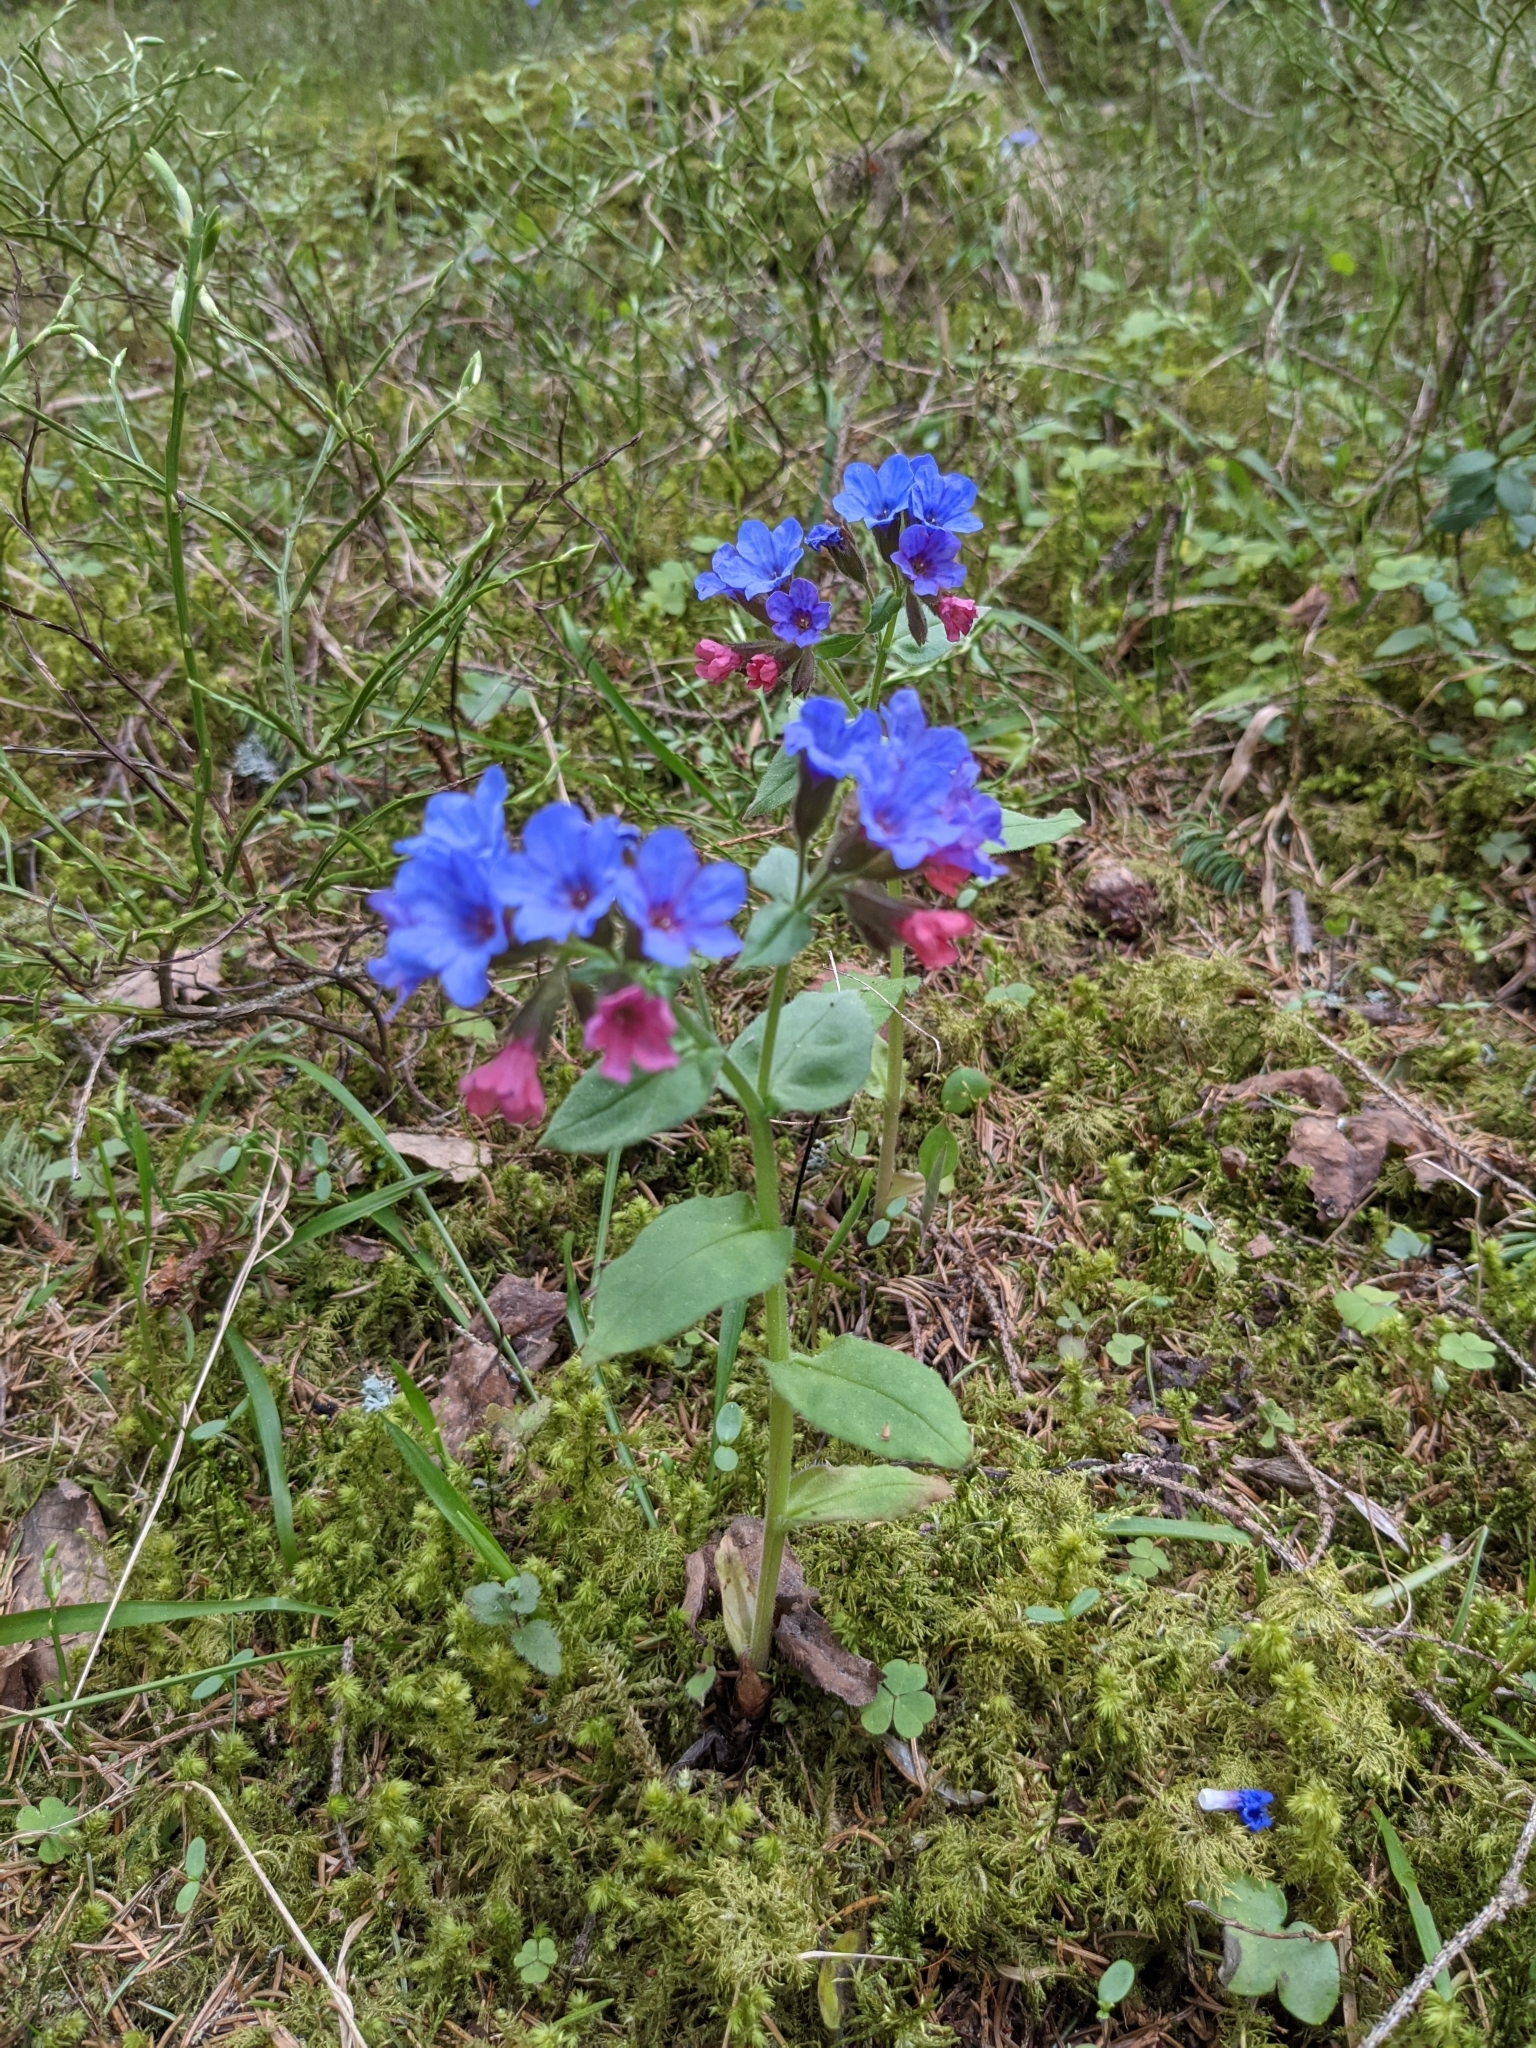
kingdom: Plantae
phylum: Tracheophyta
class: Magnoliopsida
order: Boraginales
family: Boraginaceae
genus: Pulmonaria
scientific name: Pulmonaria obscura
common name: Suffolk lungwort
